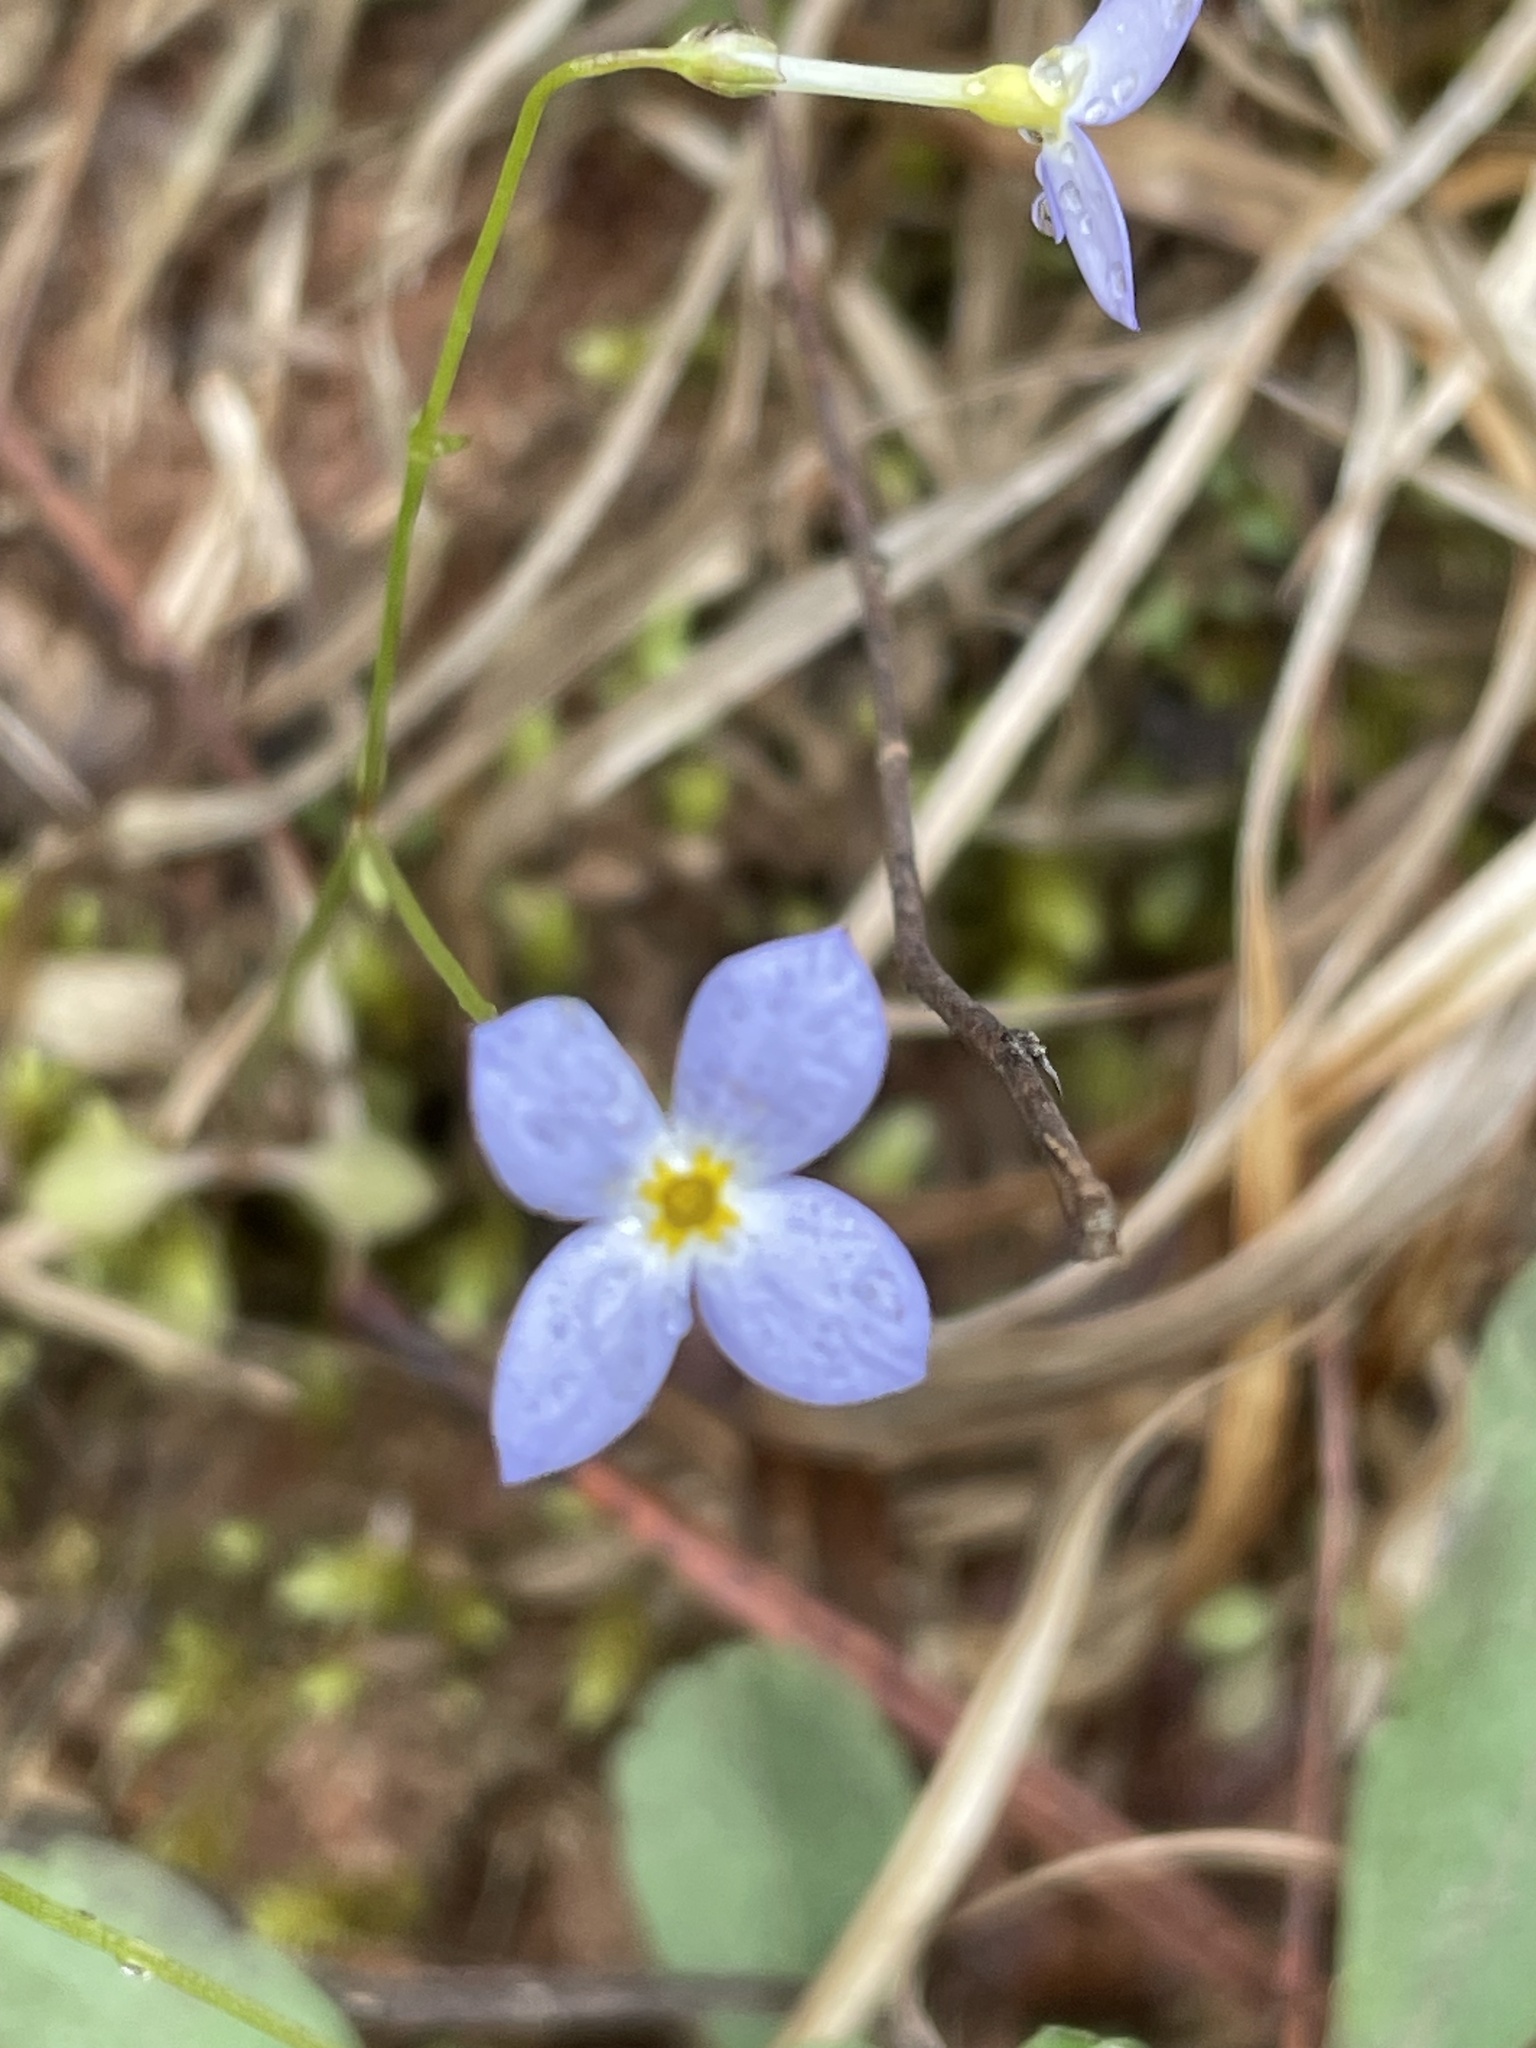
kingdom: Plantae
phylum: Tracheophyta
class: Magnoliopsida
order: Gentianales
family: Rubiaceae
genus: Houstonia
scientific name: Houstonia caerulea
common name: Bluets
